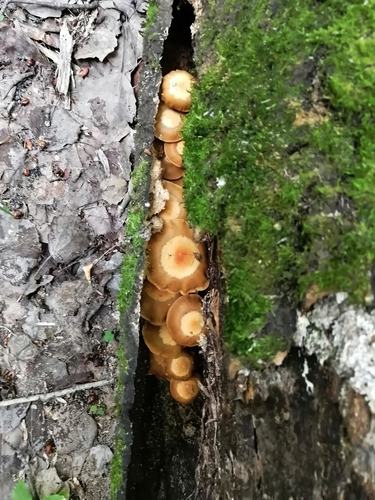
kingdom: Fungi
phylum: Basidiomycota
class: Agaricomycetes
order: Agaricales
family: Strophariaceae
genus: Kuehneromyces
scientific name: Kuehneromyces mutabilis
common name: Sheathed woodtuft
